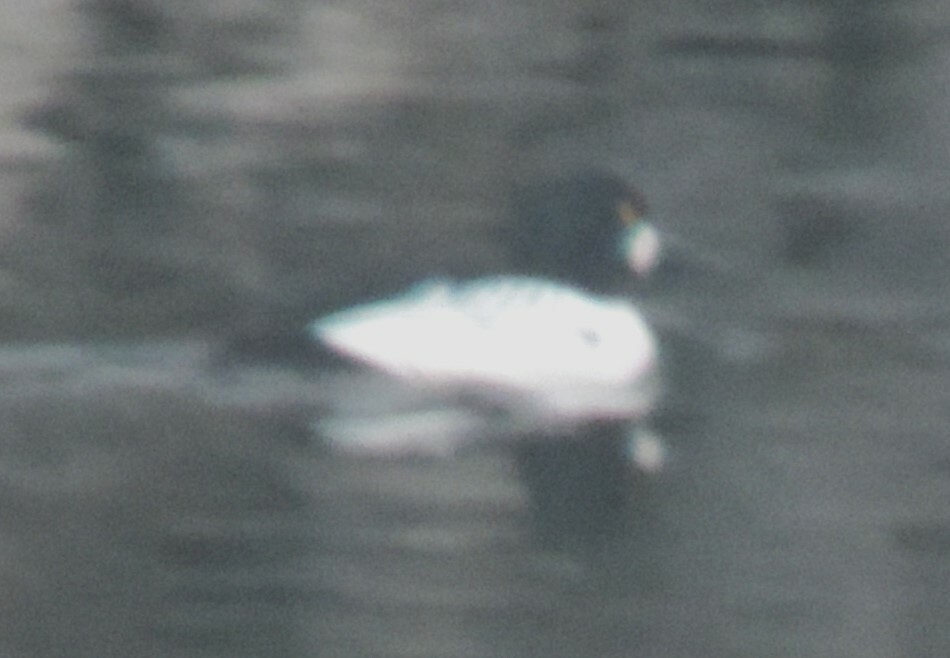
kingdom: Animalia
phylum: Chordata
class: Aves
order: Anseriformes
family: Anatidae
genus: Bucephala
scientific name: Bucephala clangula
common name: Common goldeneye
